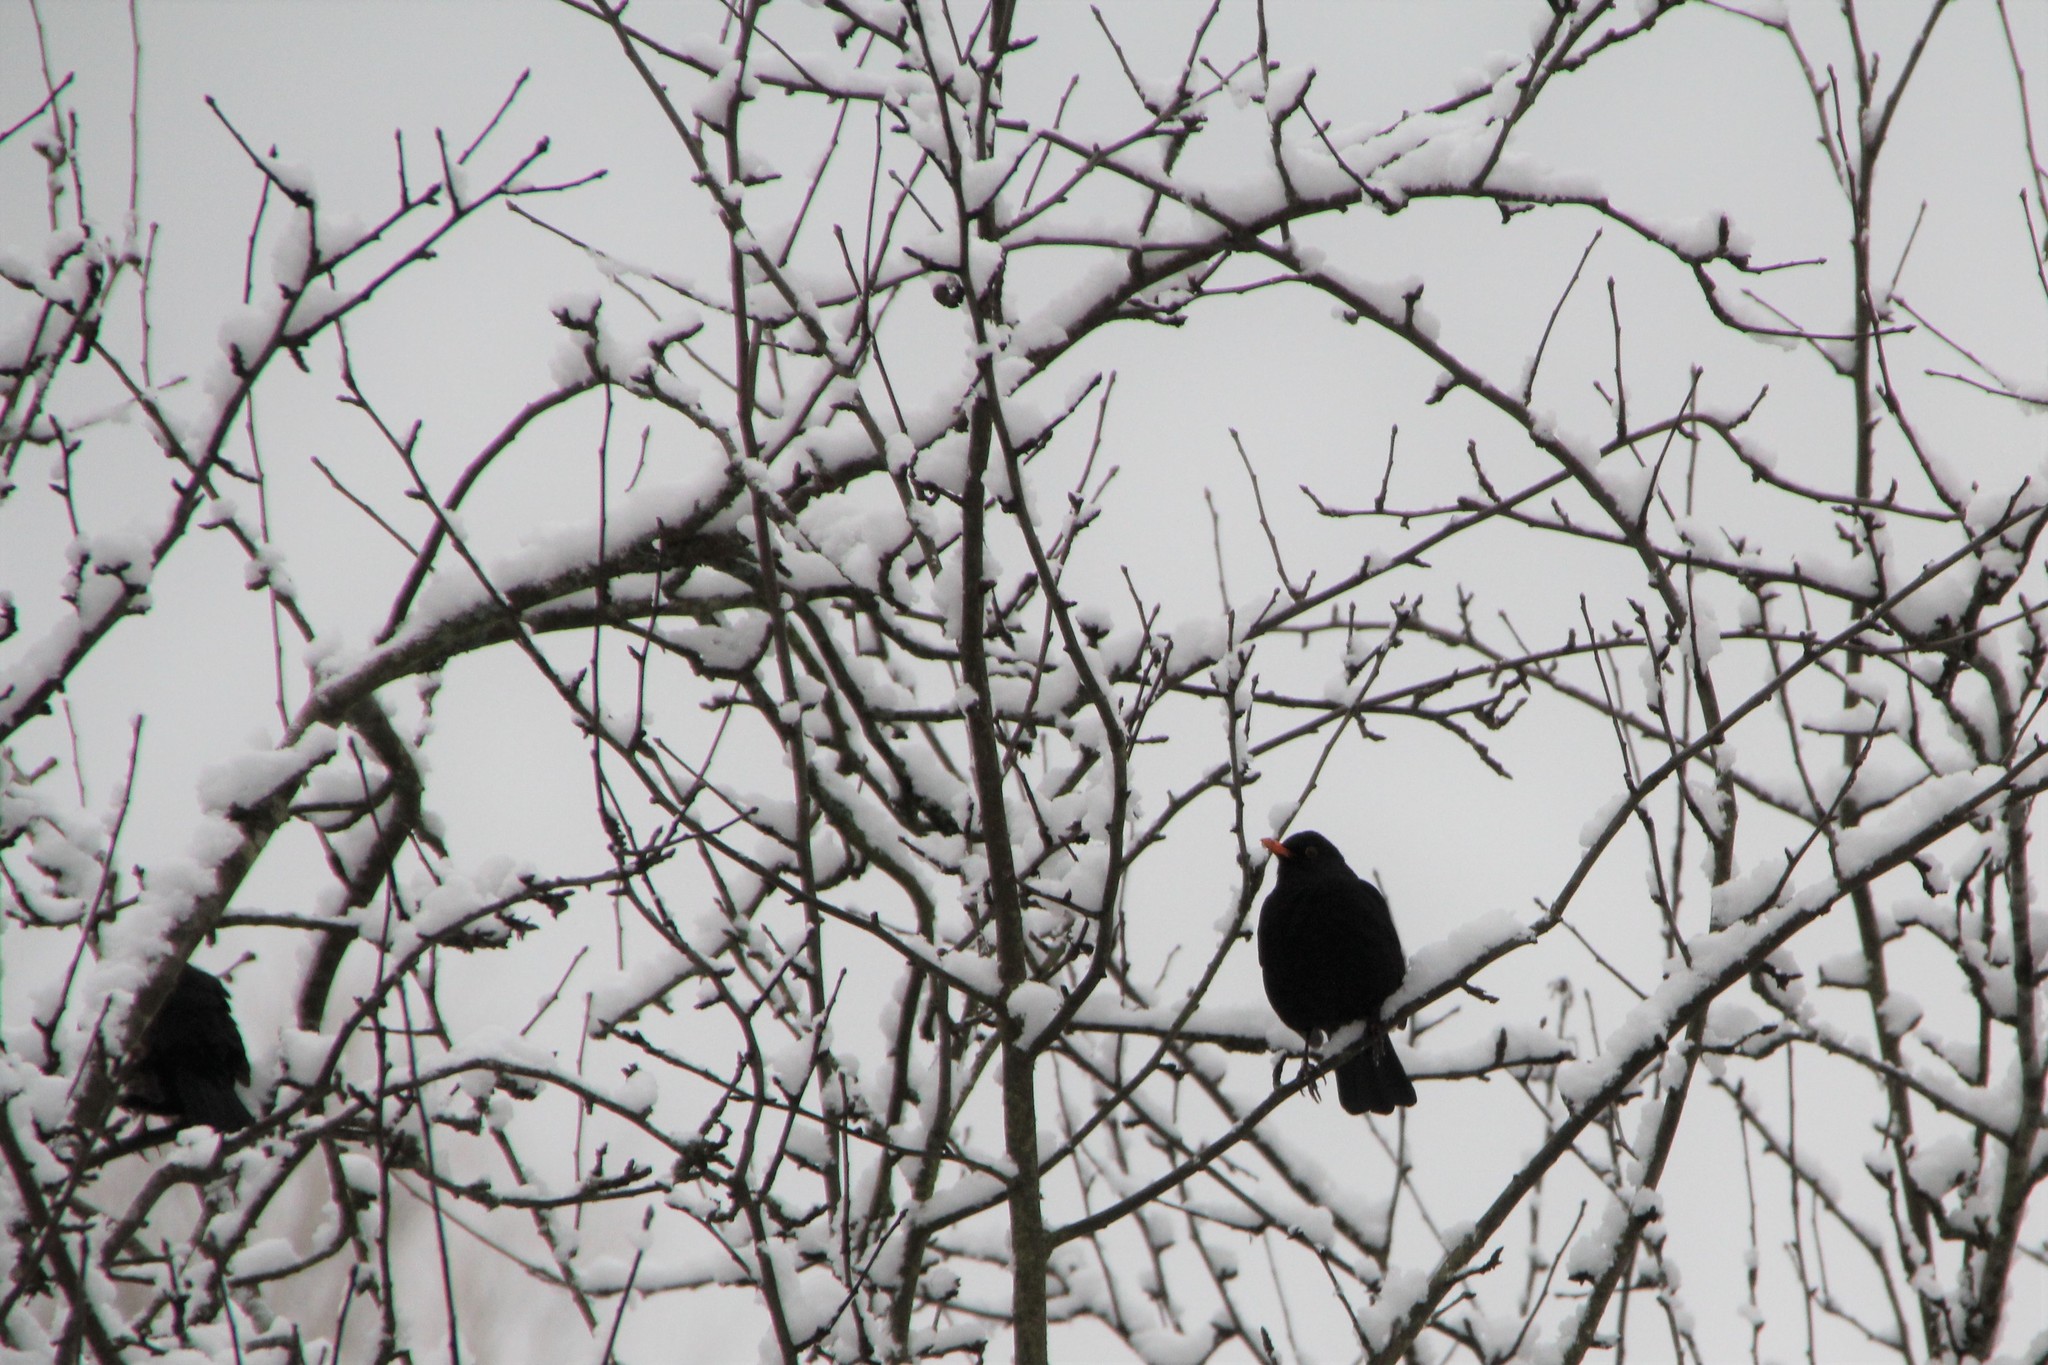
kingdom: Animalia
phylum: Chordata
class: Aves
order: Passeriformes
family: Turdidae
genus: Turdus
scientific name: Turdus merula
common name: Common blackbird
